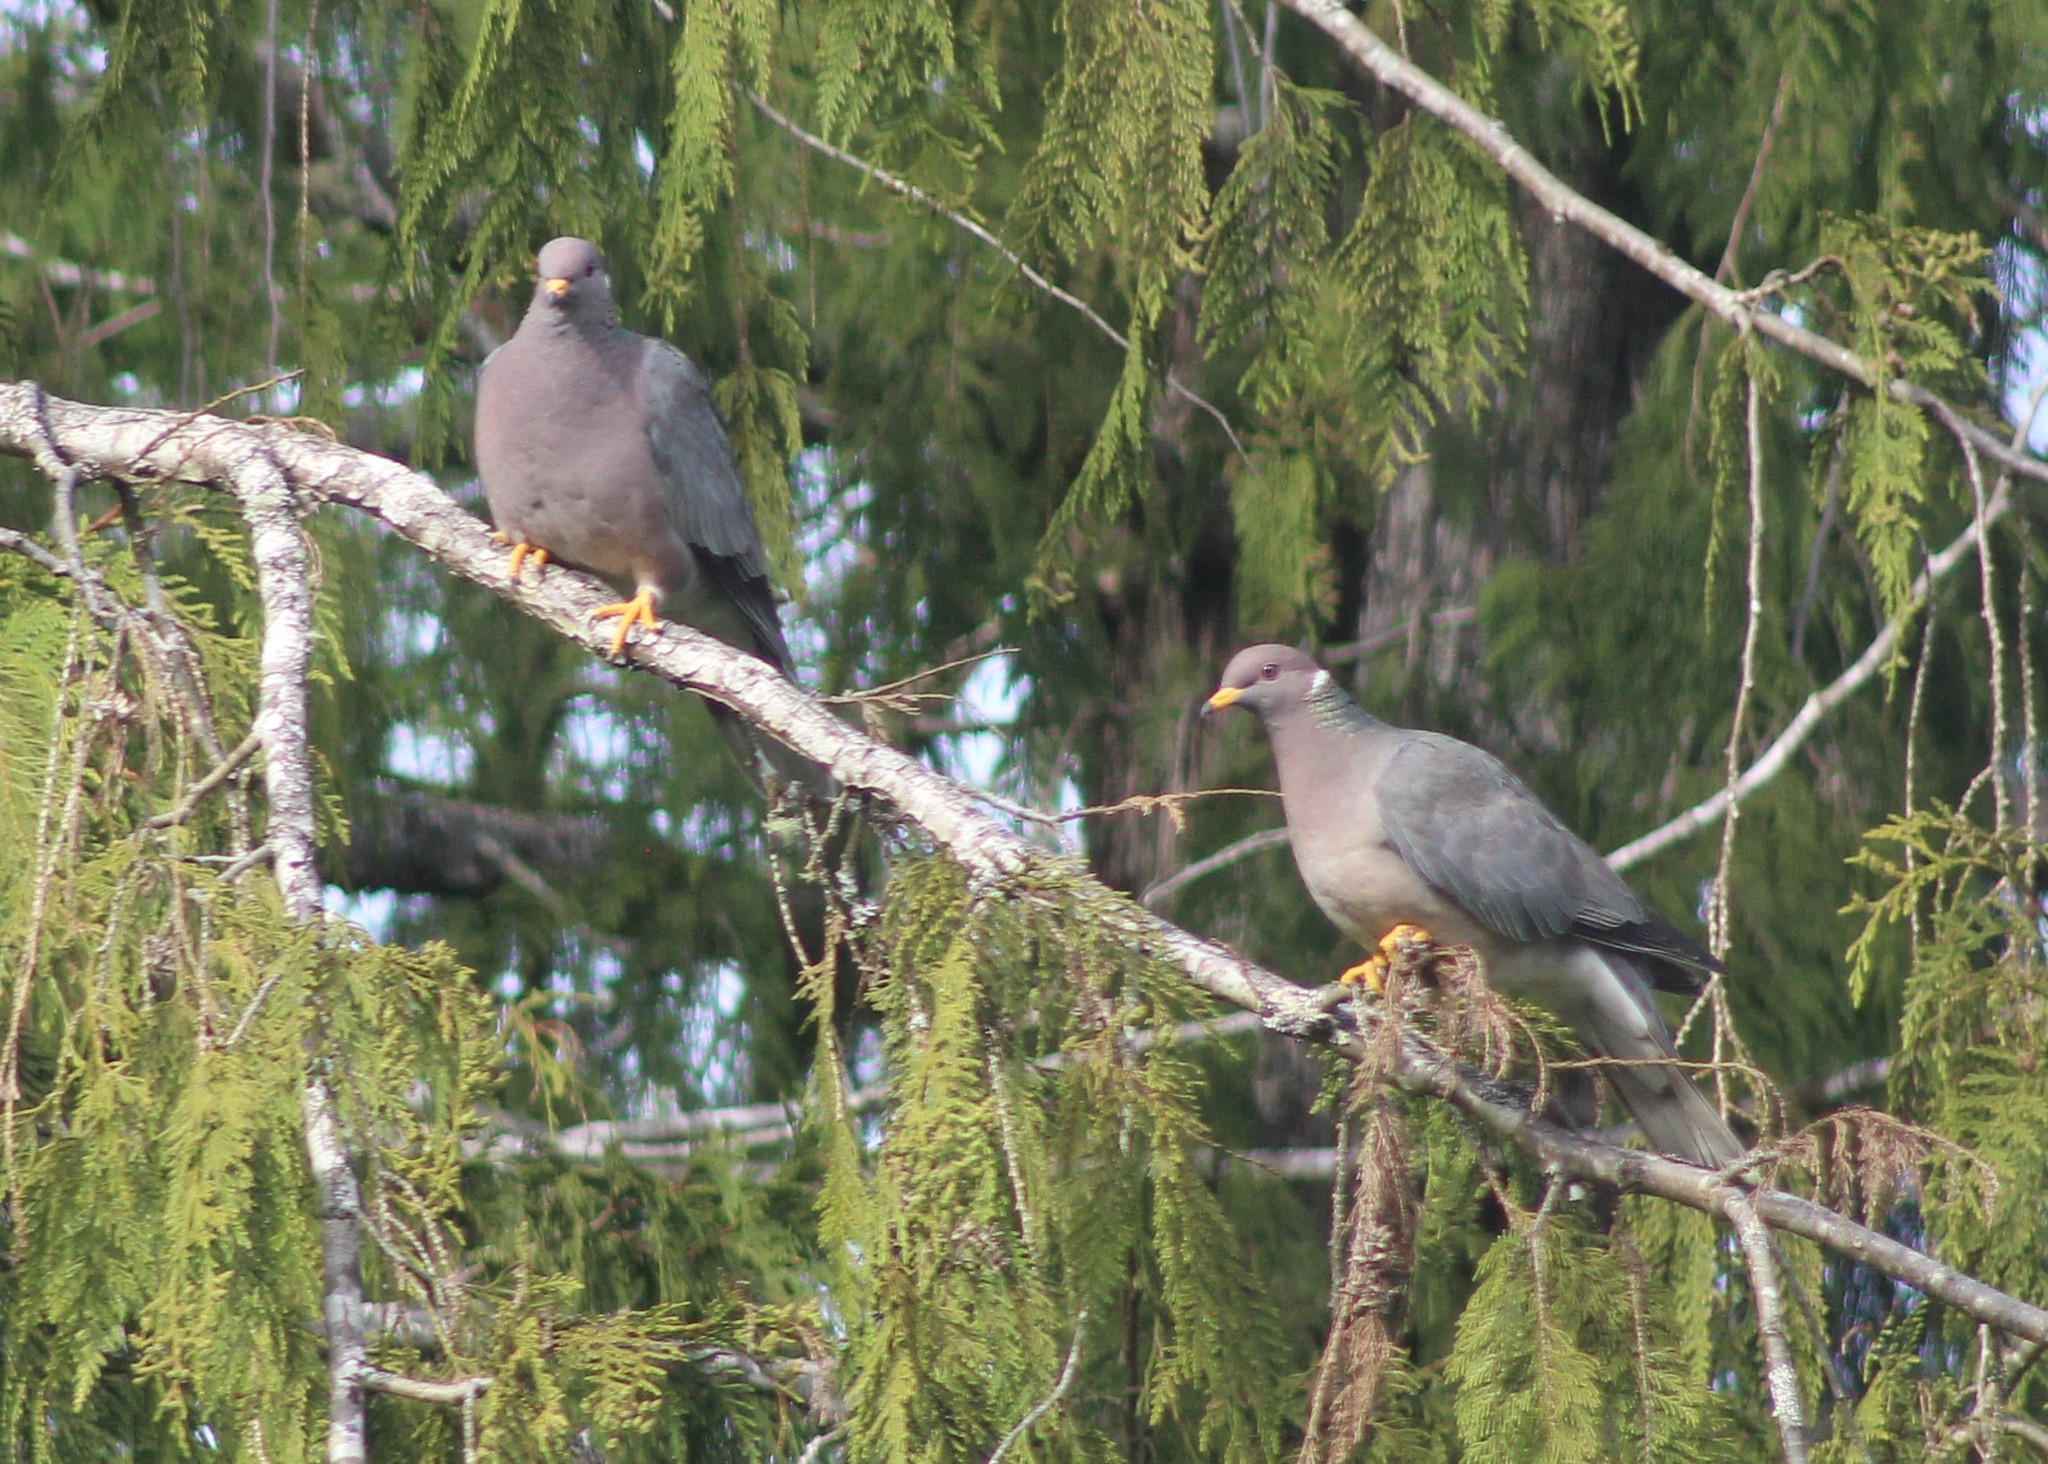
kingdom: Animalia
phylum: Chordata
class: Aves
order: Columbiformes
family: Columbidae
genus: Patagioenas
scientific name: Patagioenas fasciata
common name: Band-tailed pigeon
